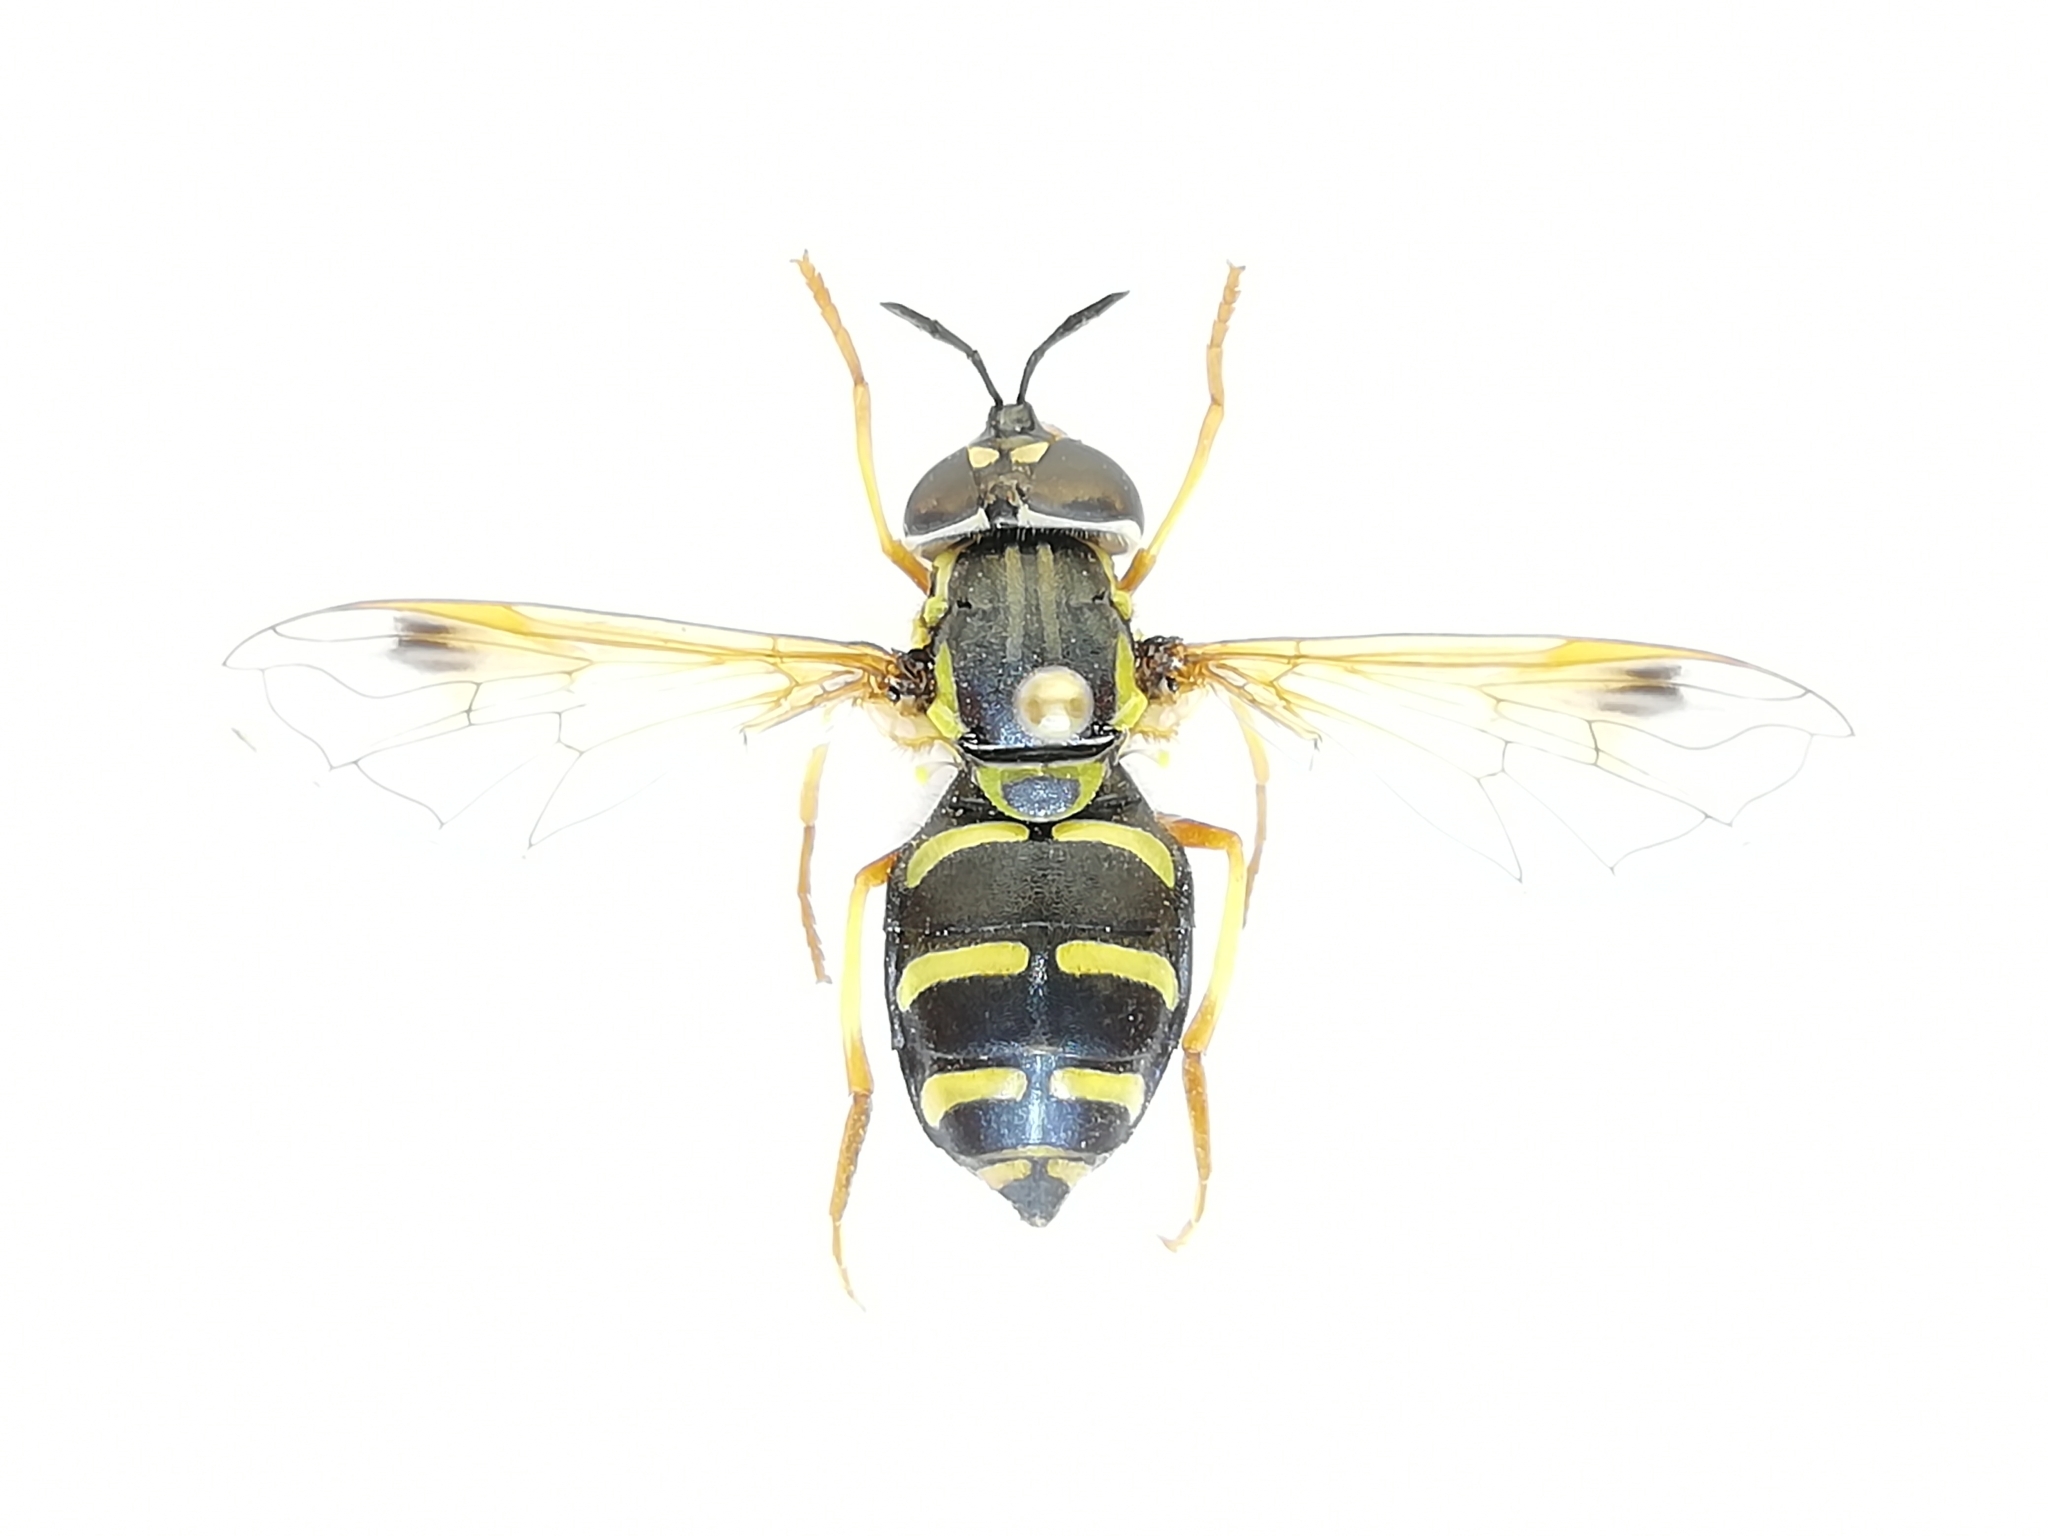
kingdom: Animalia
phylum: Arthropoda
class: Insecta
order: Diptera
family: Syrphidae
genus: Chrysotoxum
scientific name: Chrysotoxum festivum
